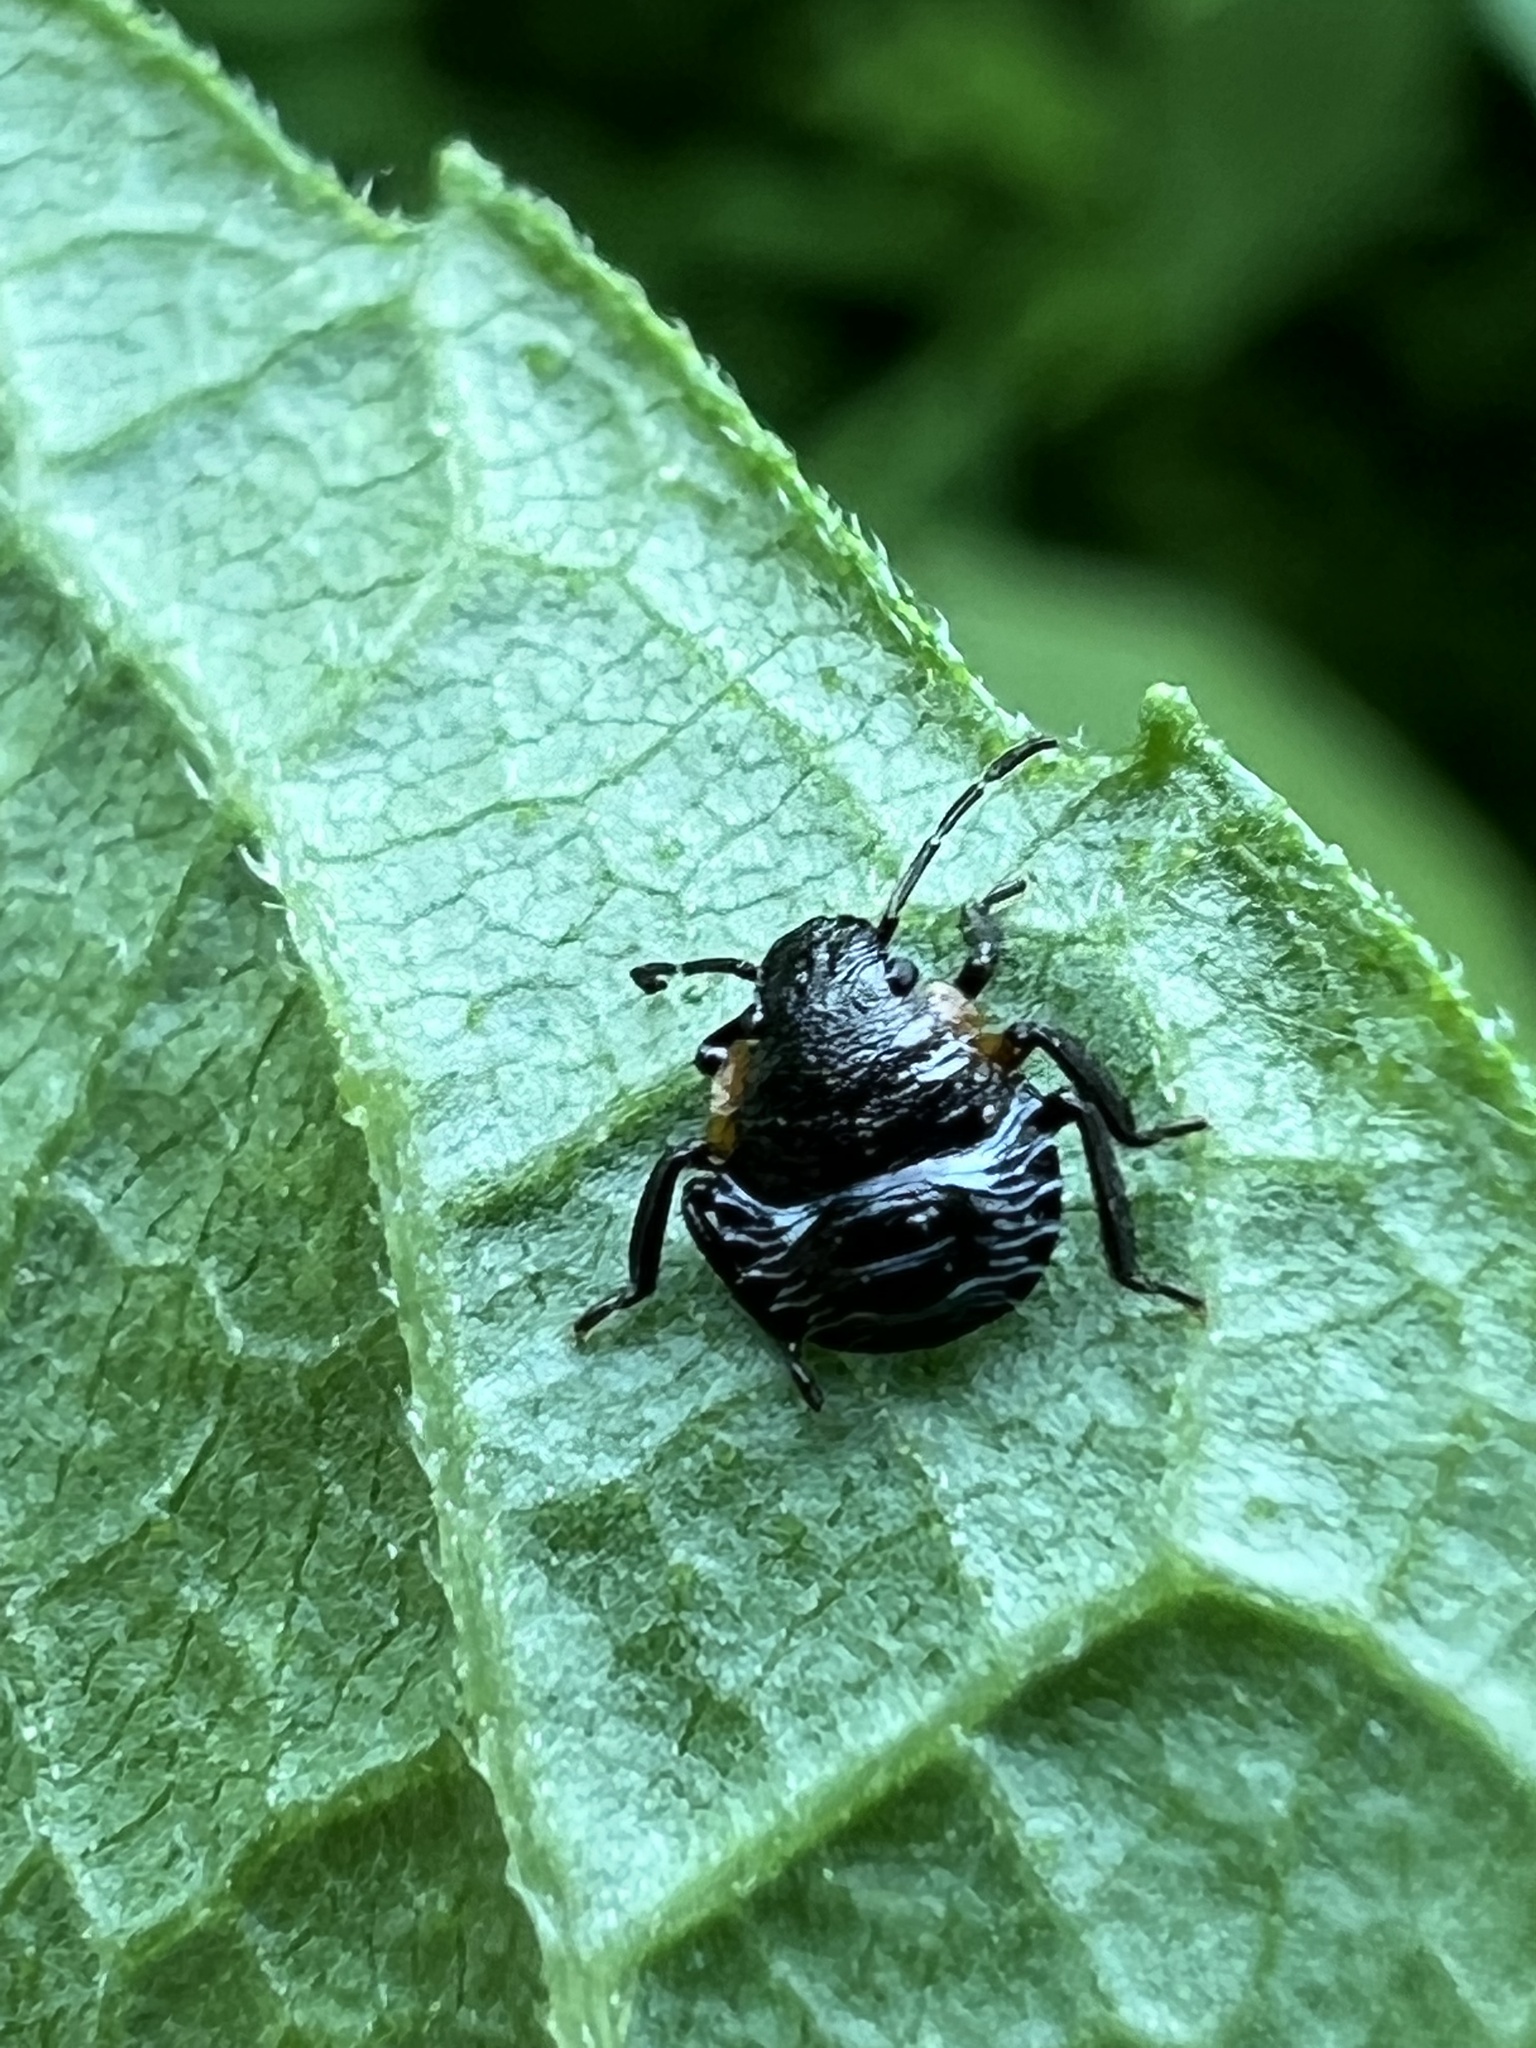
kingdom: Animalia
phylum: Arthropoda
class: Insecta
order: Hemiptera
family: Pentatomidae
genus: Chinavia
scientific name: Chinavia hilaris
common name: Green stink bug
